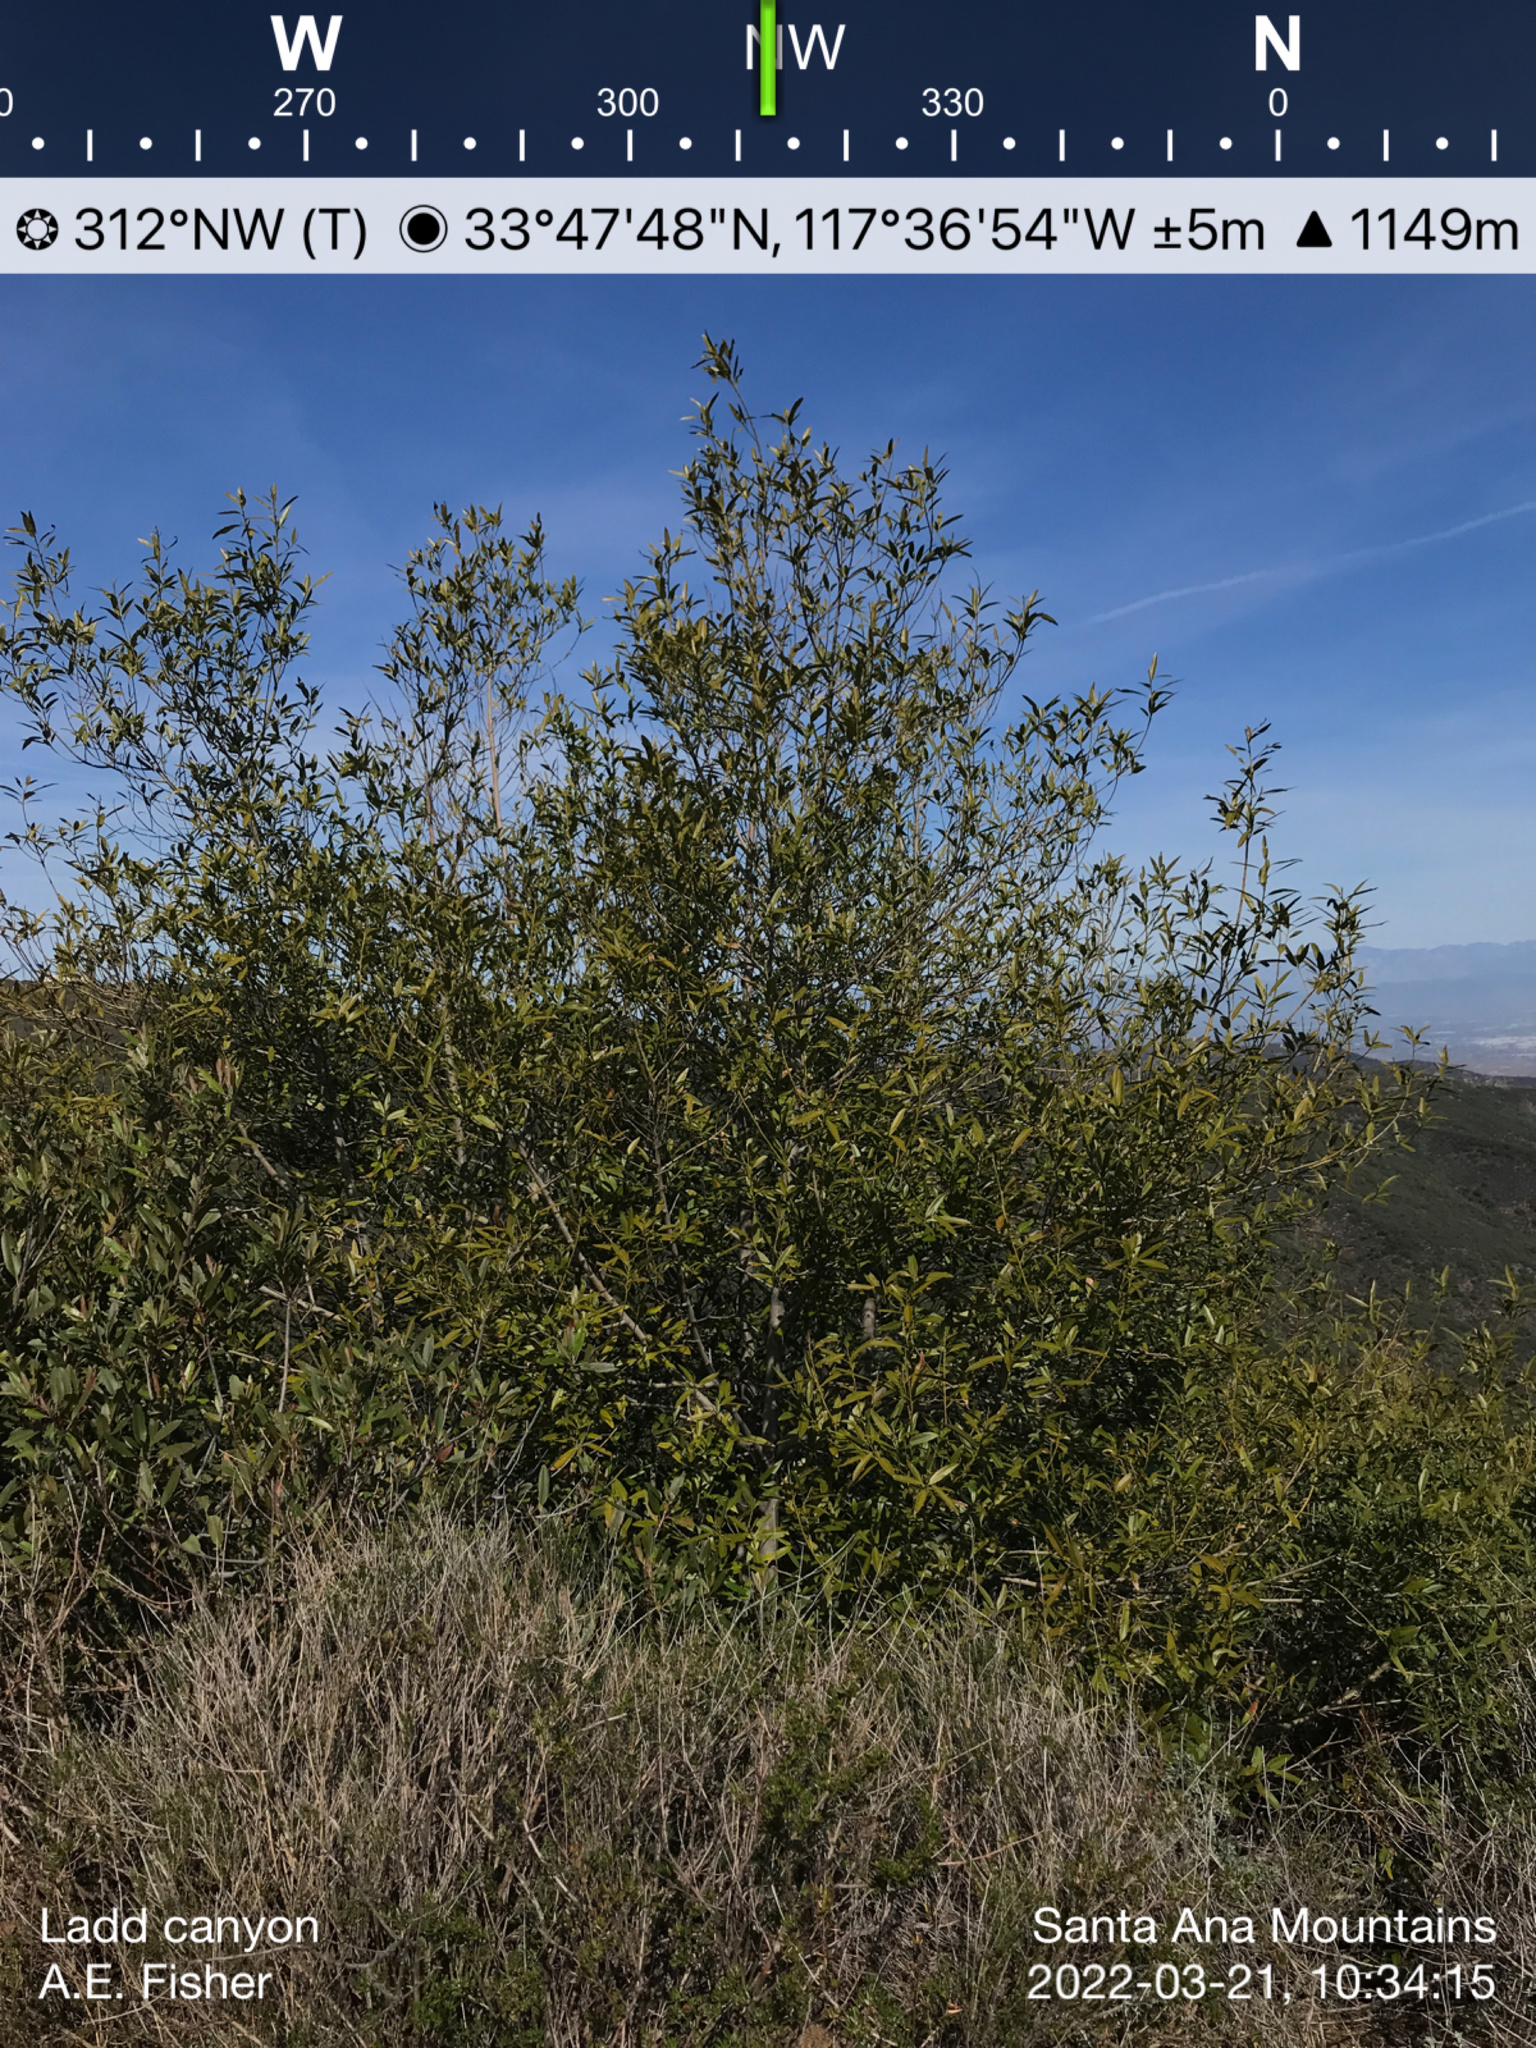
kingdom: Plantae
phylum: Tracheophyta
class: Magnoliopsida
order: Laurales
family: Lauraceae
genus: Umbellularia
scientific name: Umbellularia californica
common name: California bay
